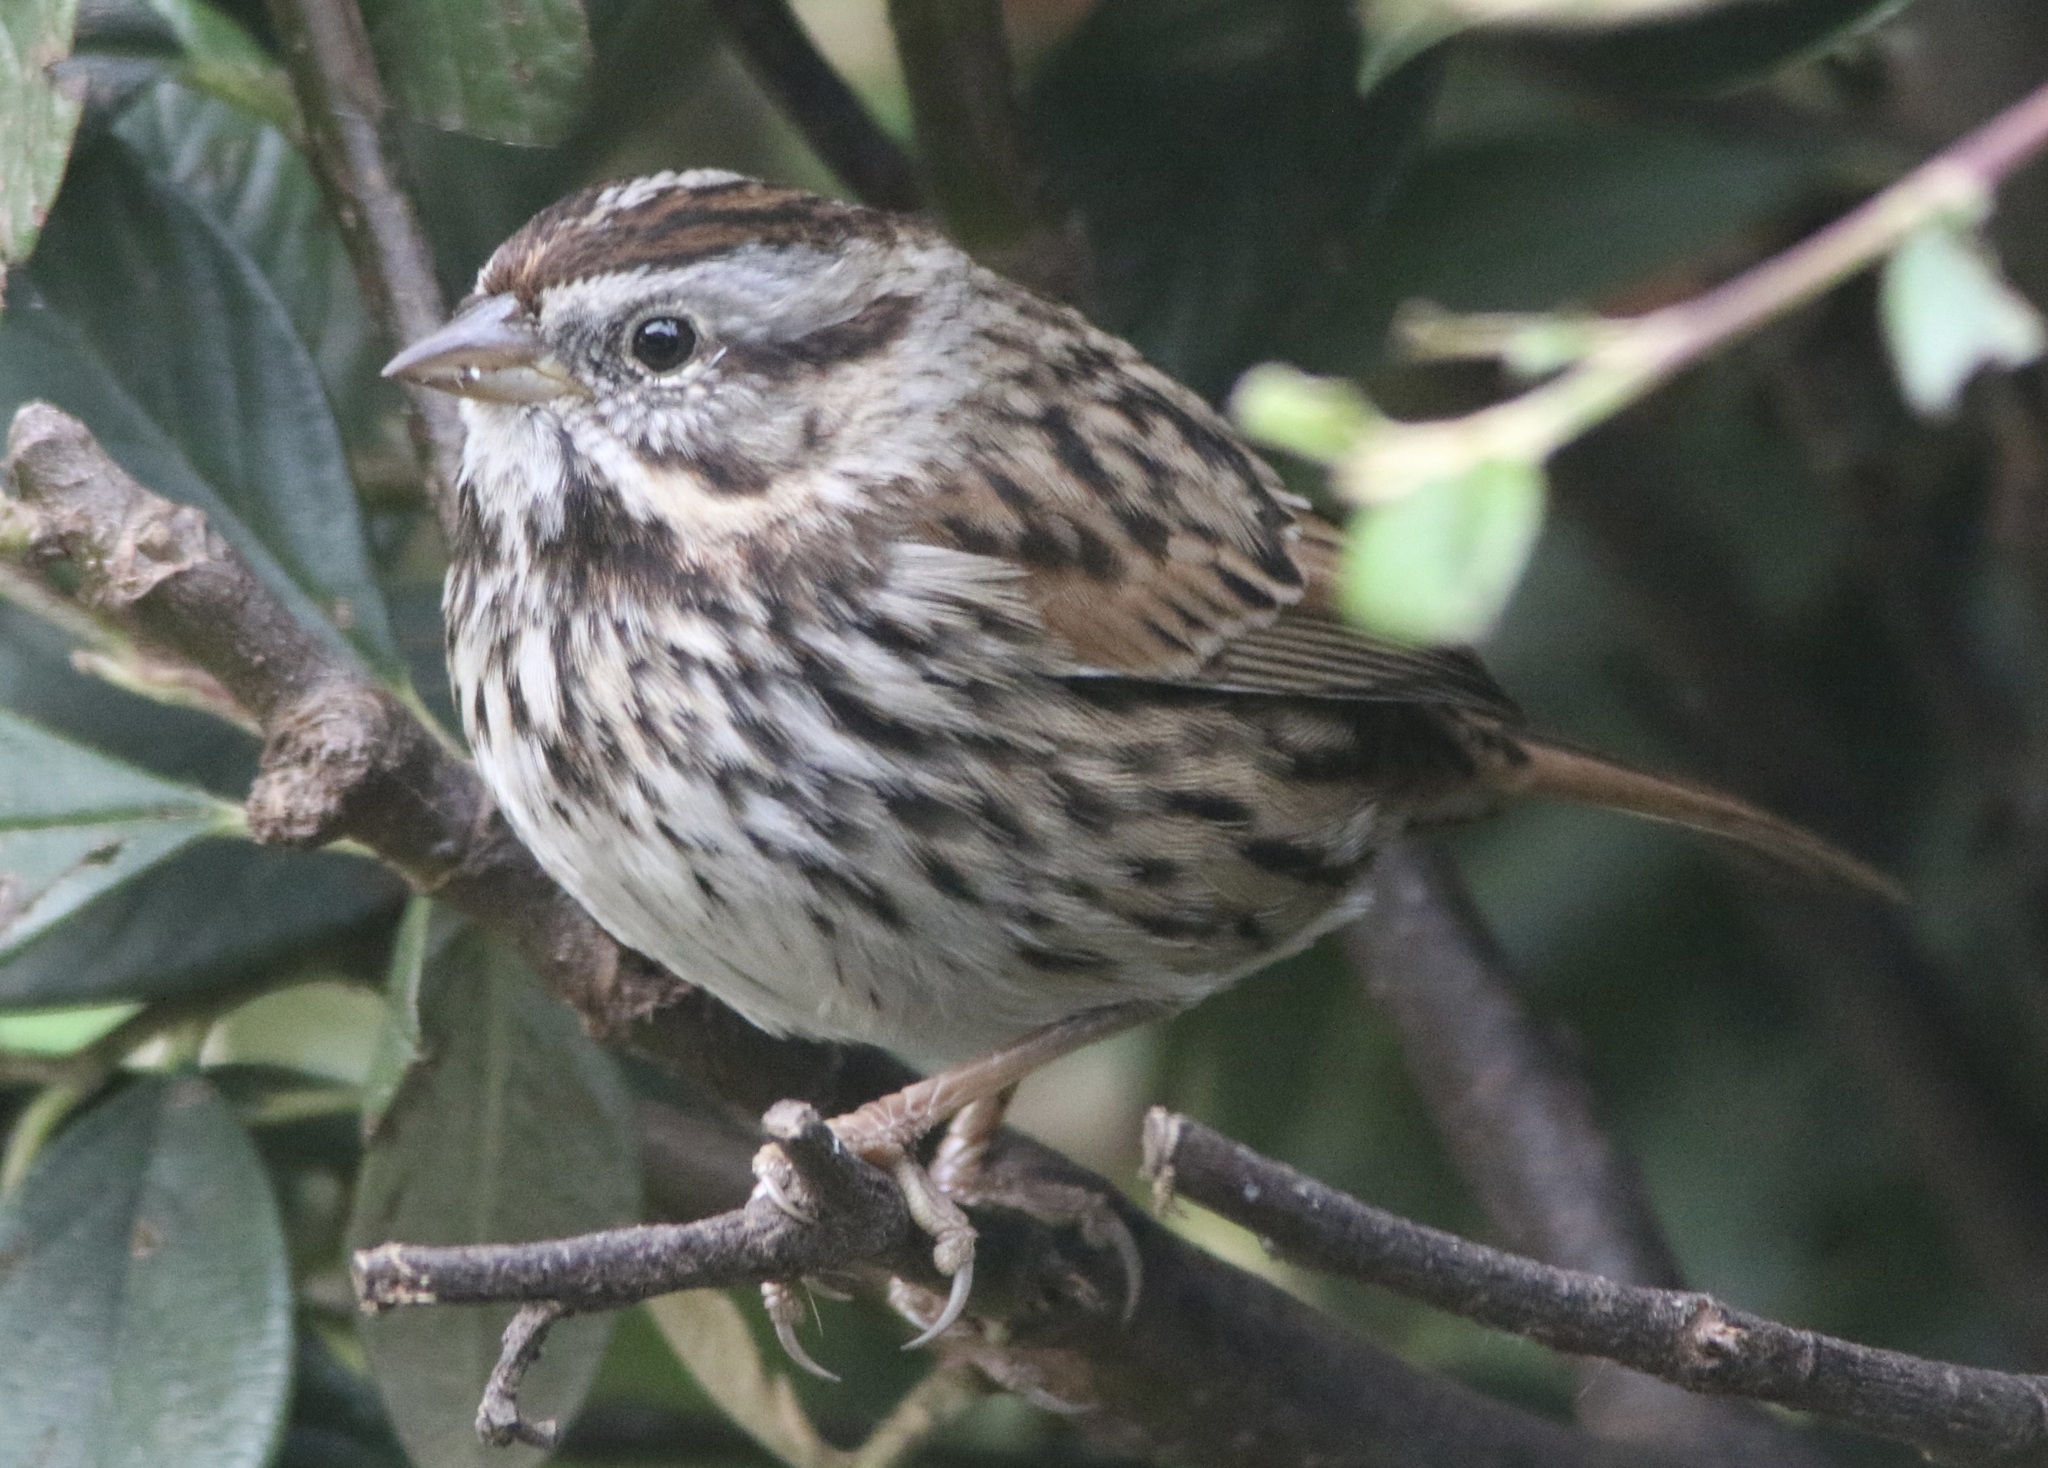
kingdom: Animalia
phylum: Chordata
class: Aves
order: Passeriformes
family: Passerellidae
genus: Melospiza
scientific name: Melospiza melodia
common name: Song sparrow
